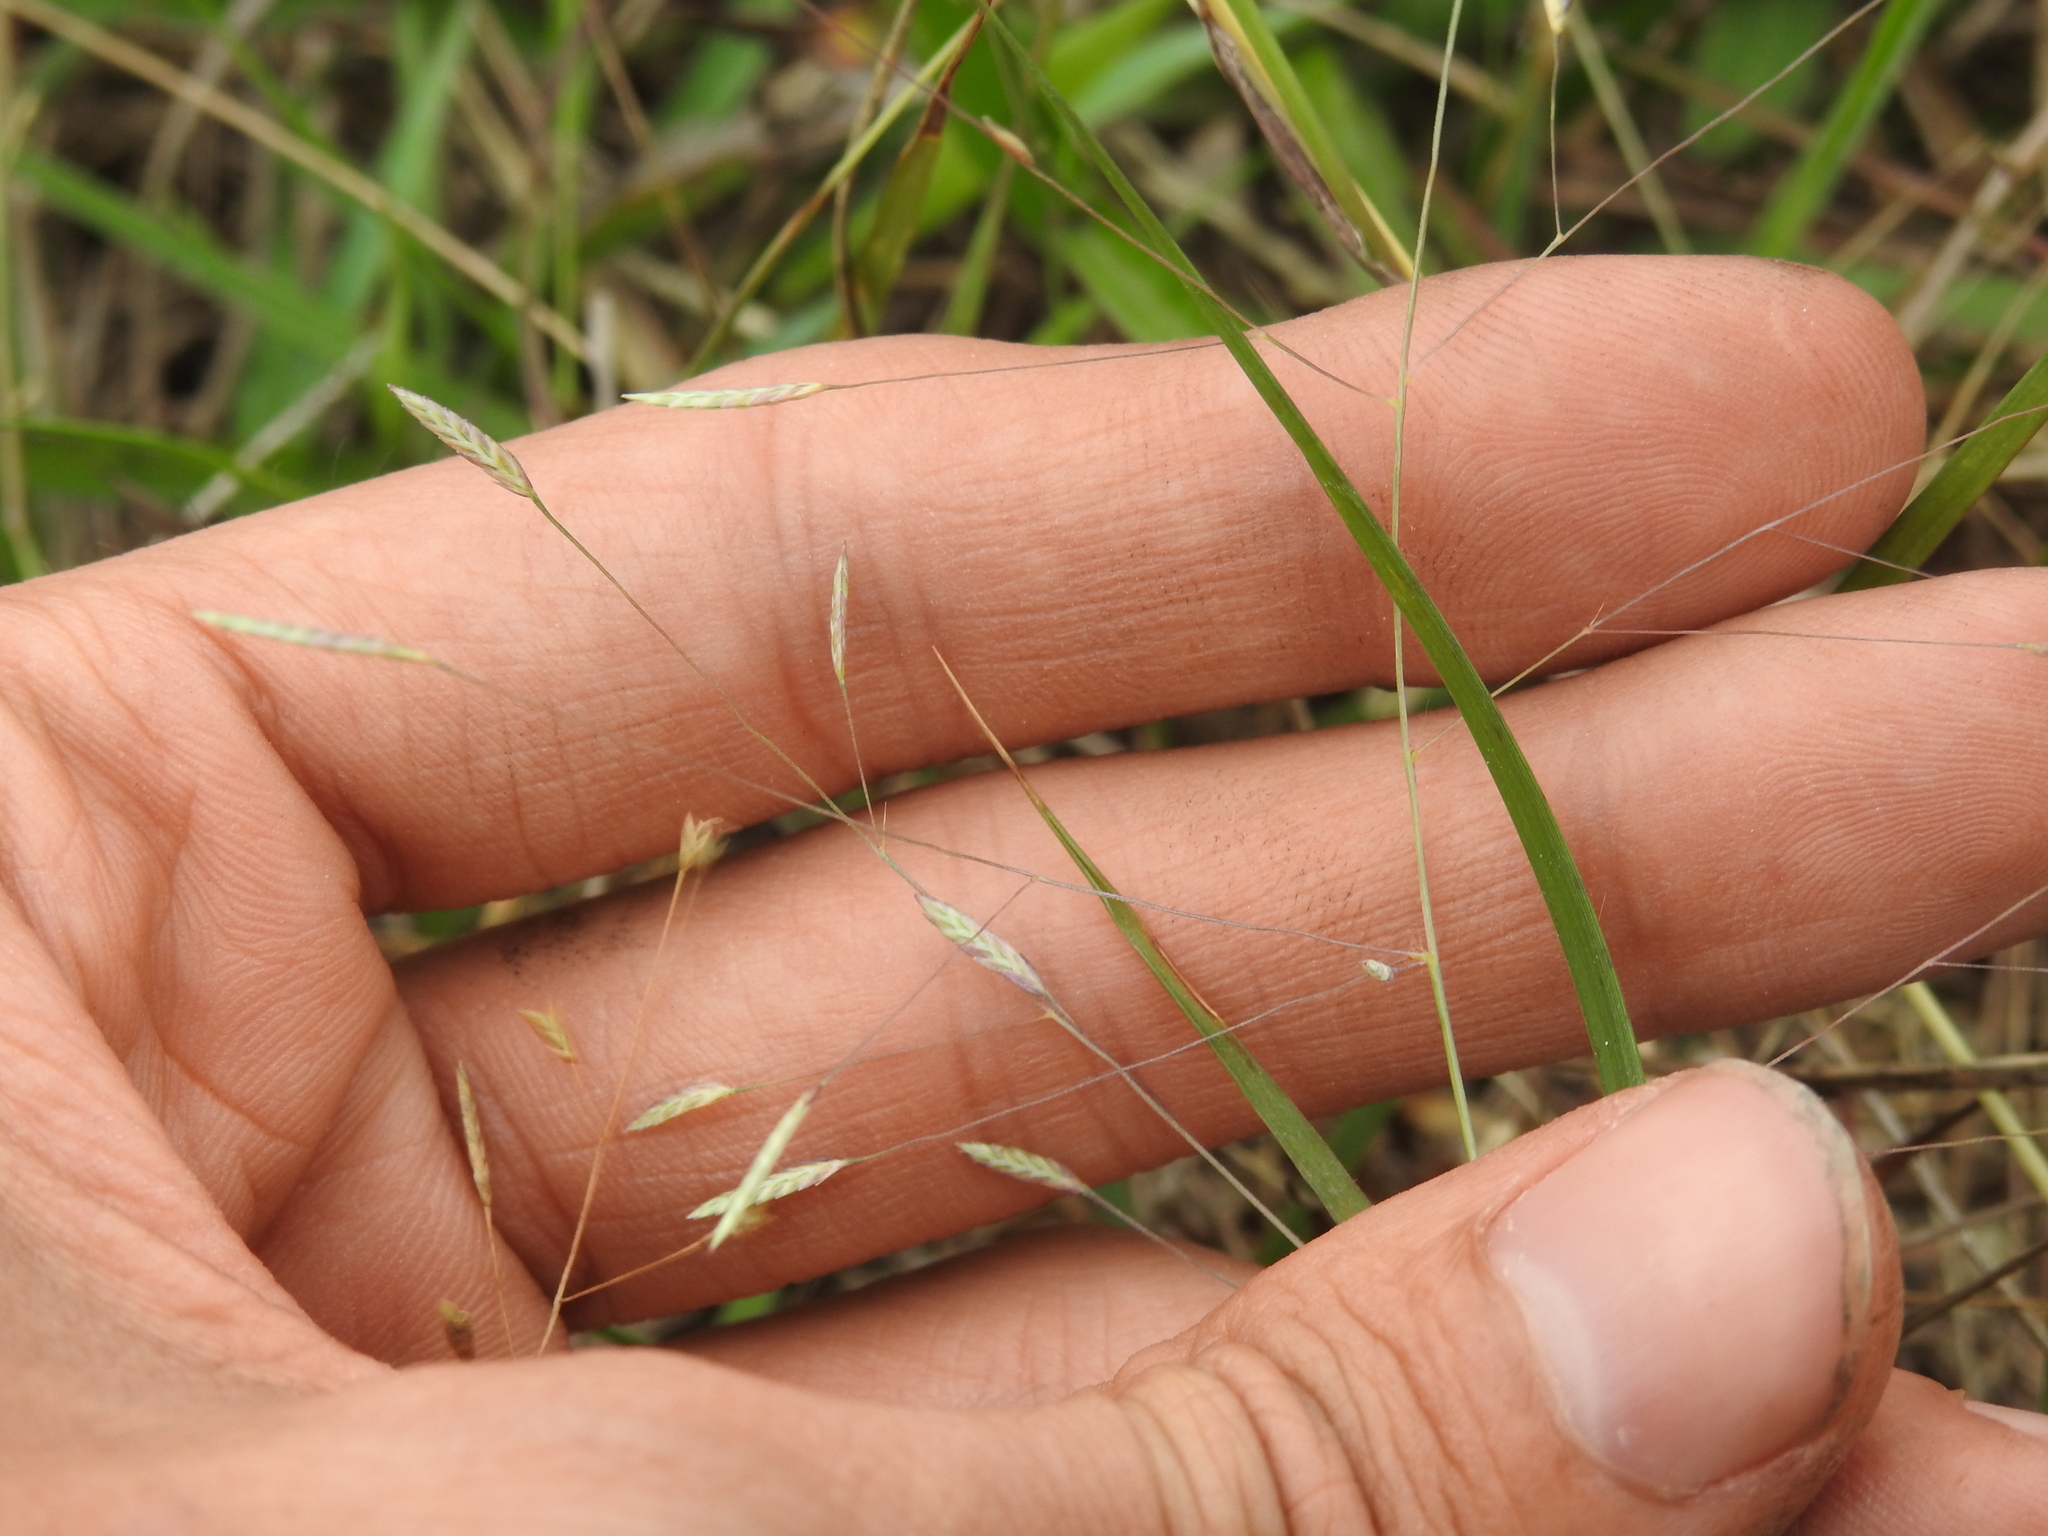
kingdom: Plantae
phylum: Tracheophyta
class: Liliopsida
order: Poales
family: Poaceae
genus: Eragrostis
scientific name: Eragrostis elliottii
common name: Elliott's love grass
